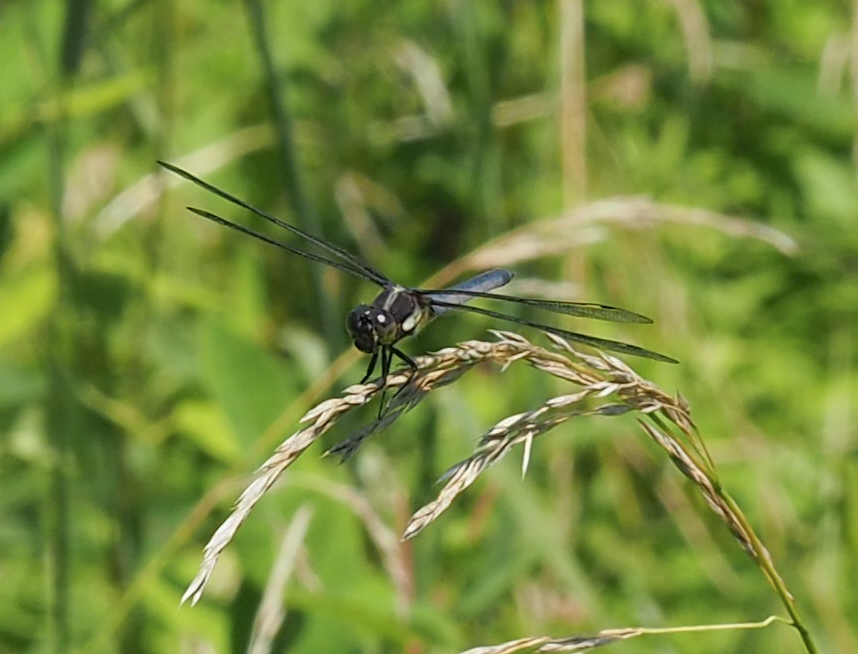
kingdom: Animalia
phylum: Arthropoda
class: Insecta
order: Odonata
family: Libellulidae
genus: Libellula
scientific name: Libellula cyanea
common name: Spangled skimmer
